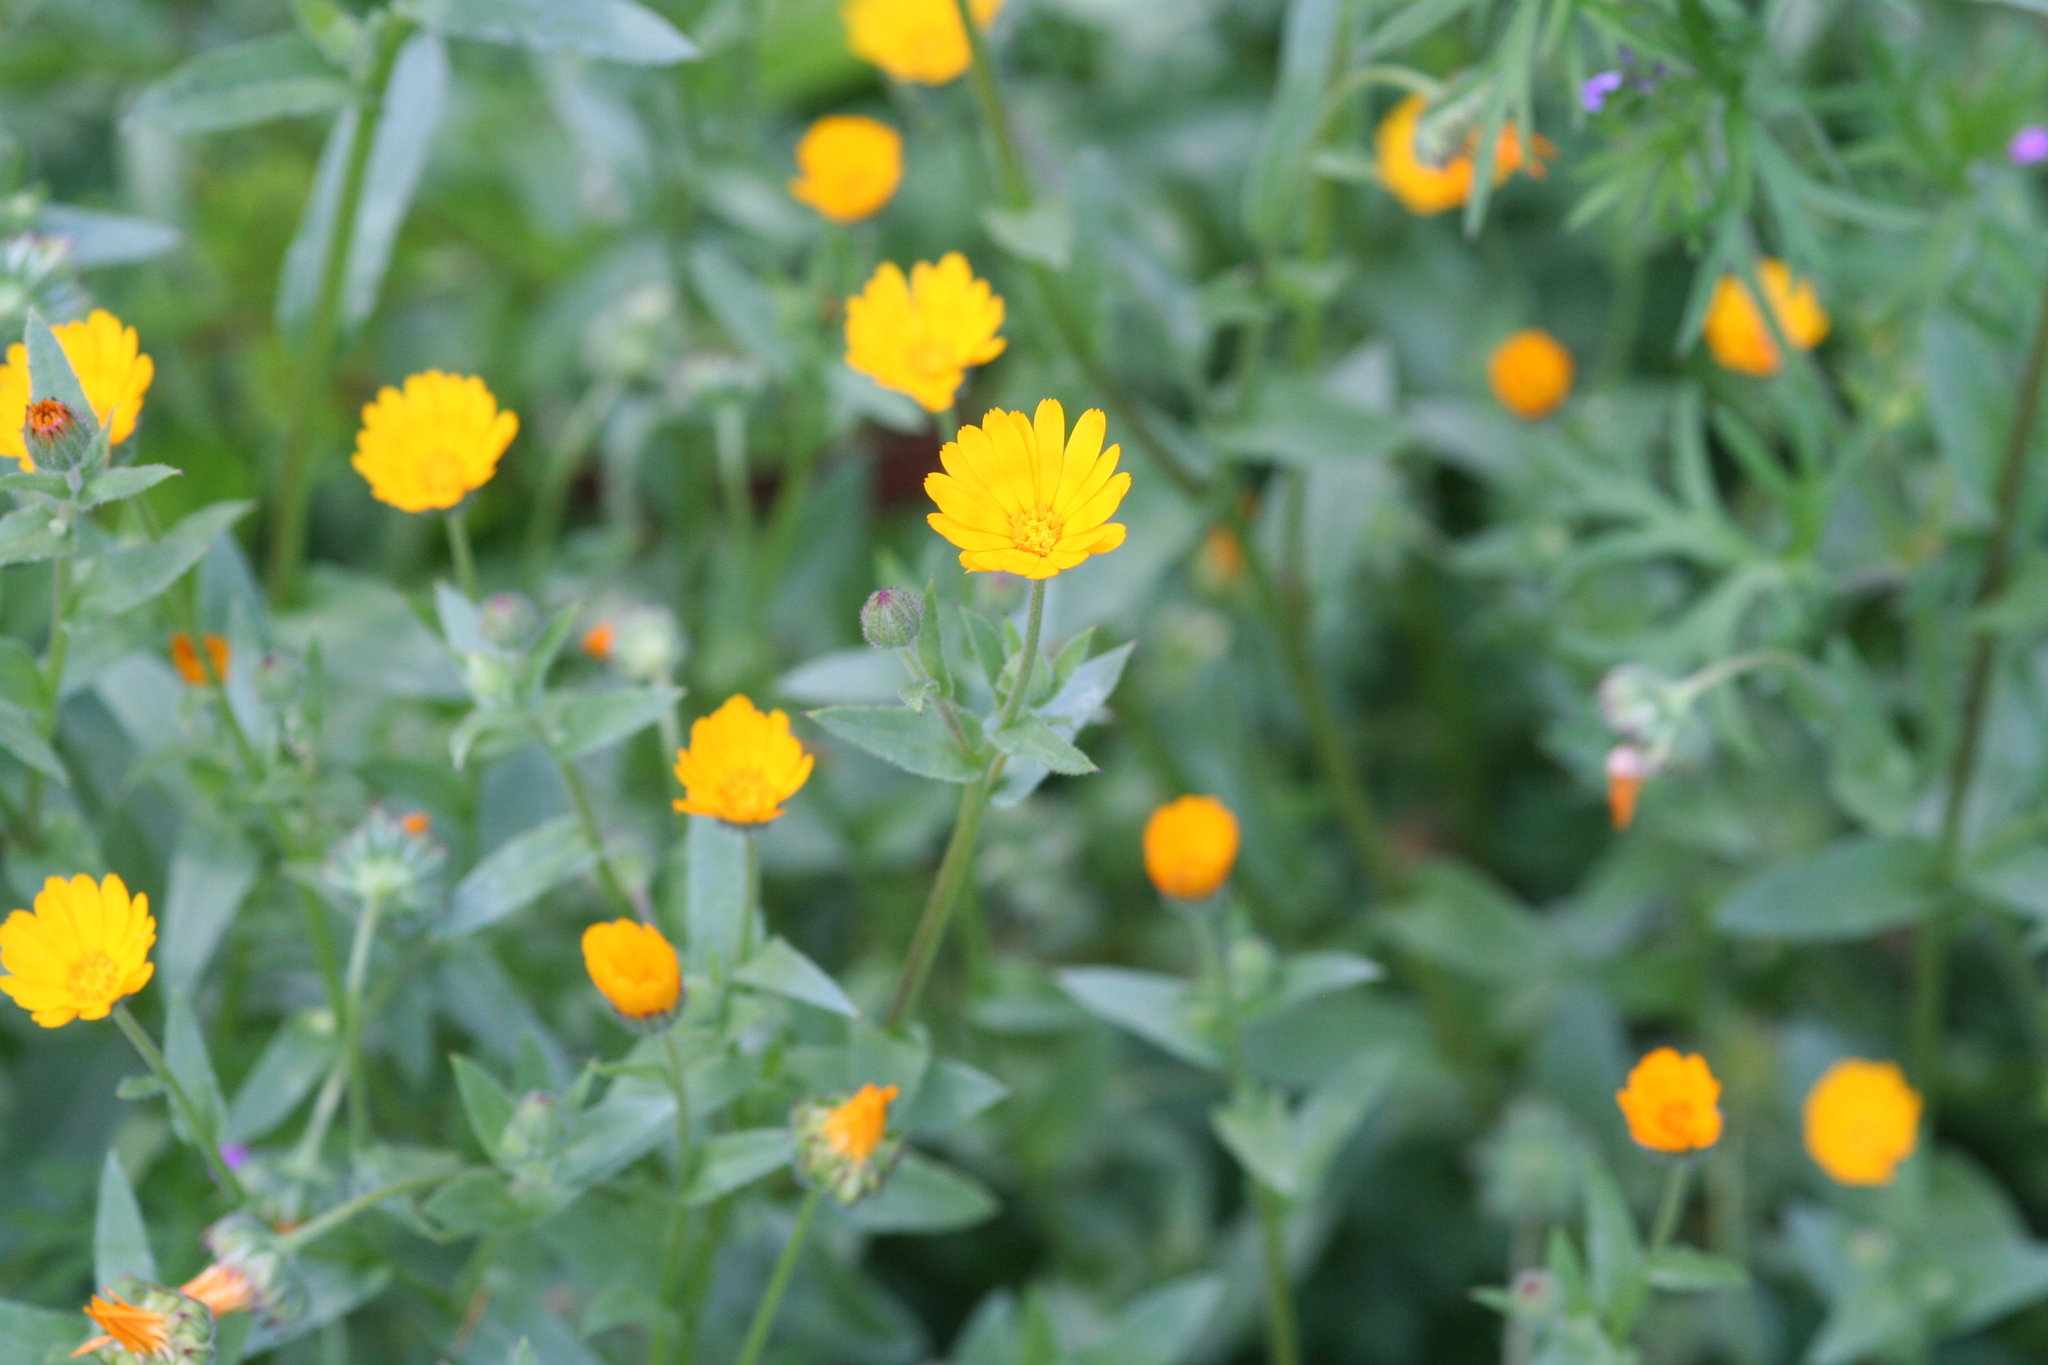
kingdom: Plantae
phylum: Tracheophyta
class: Magnoliopsida
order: Asterales
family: Asteraceae
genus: Calendula
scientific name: Calendula arvensis
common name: Field marigold
